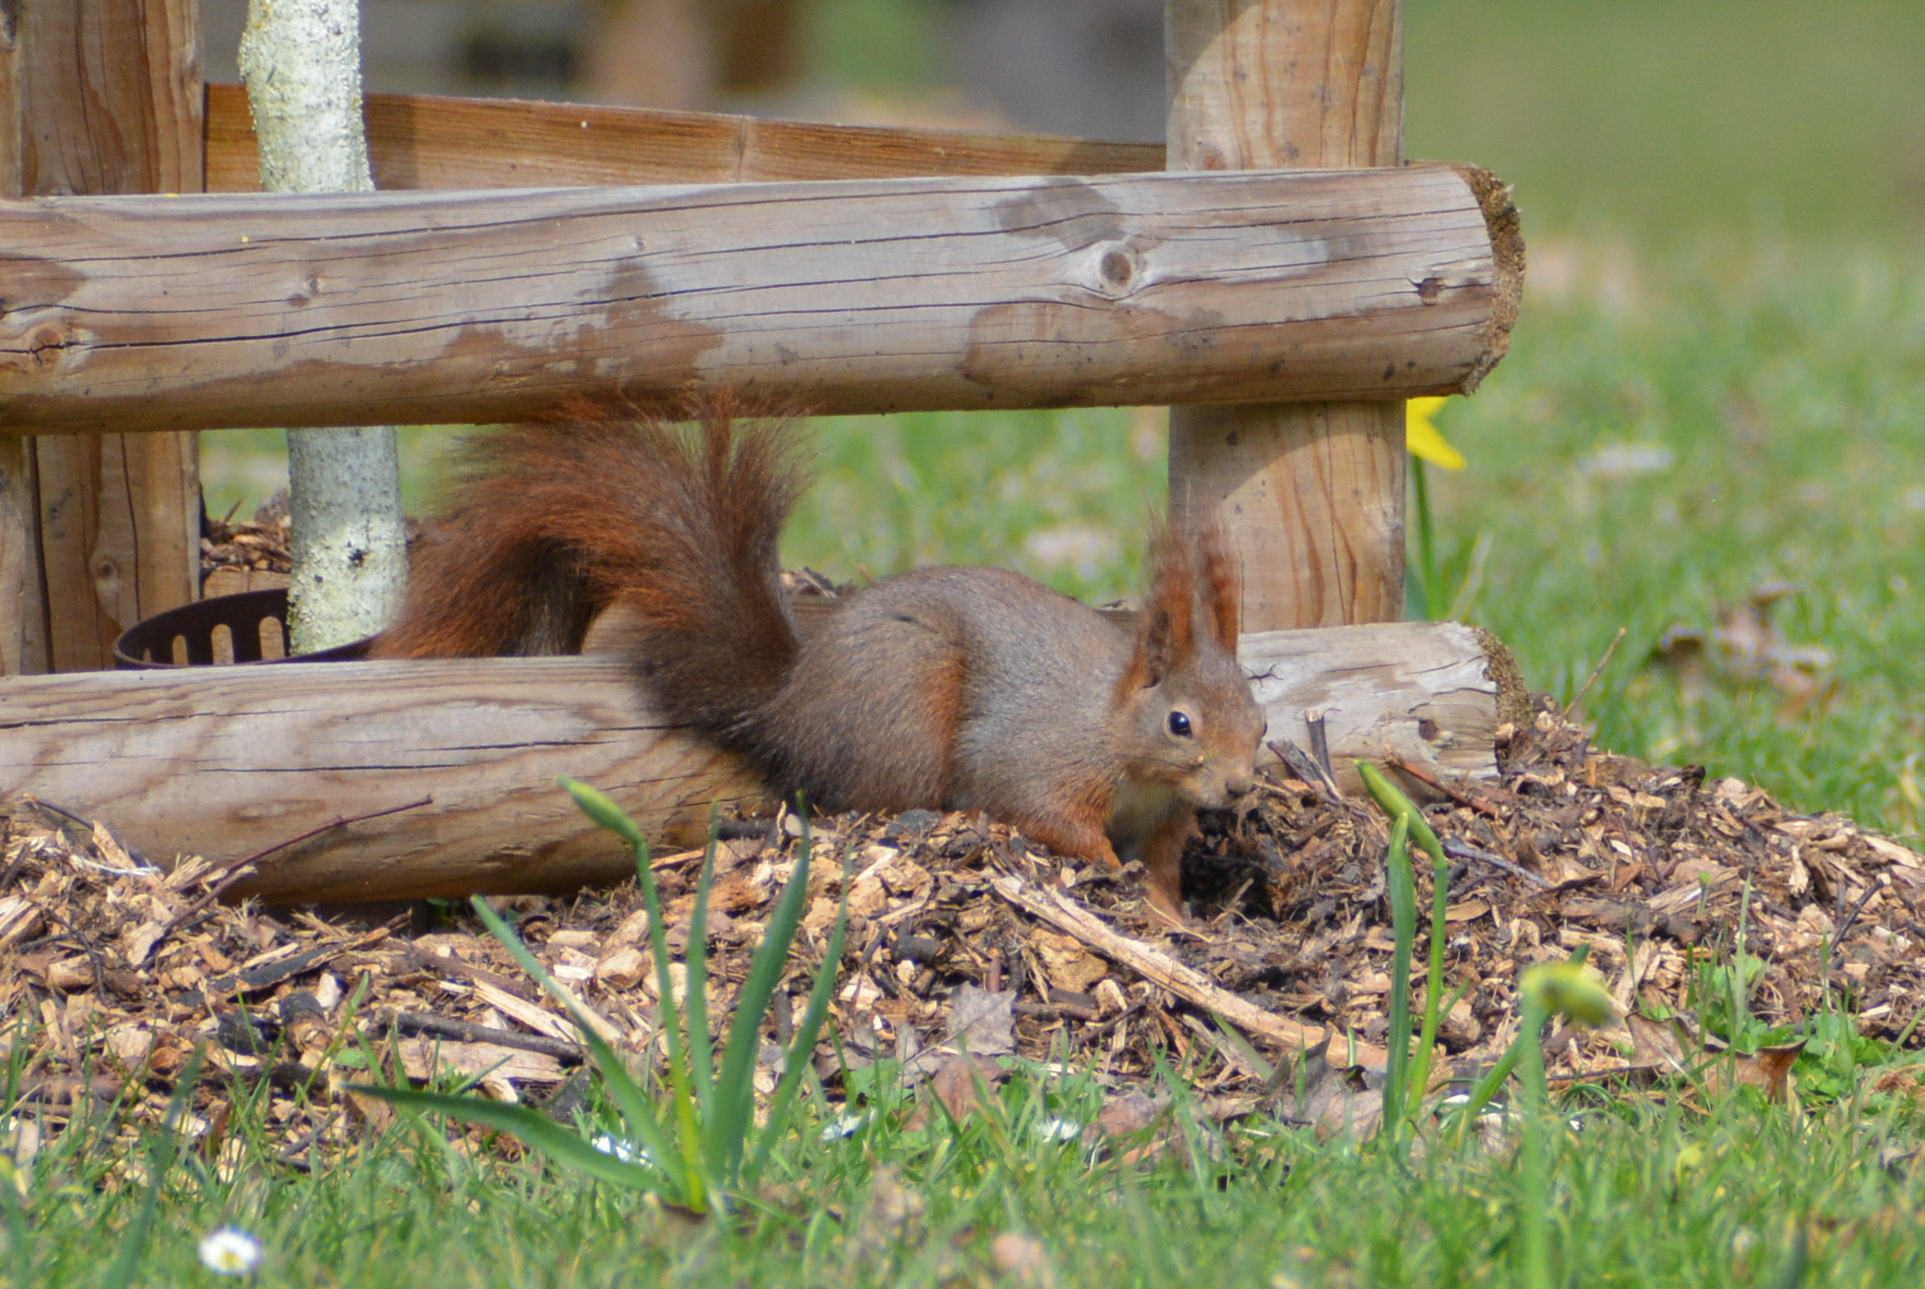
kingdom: Animalia
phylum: Chordata
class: Mammalia
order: Rodentia
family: Sciuridae
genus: Sciurus
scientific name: Sciurus vulgaris
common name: Eurasian red squirrel
